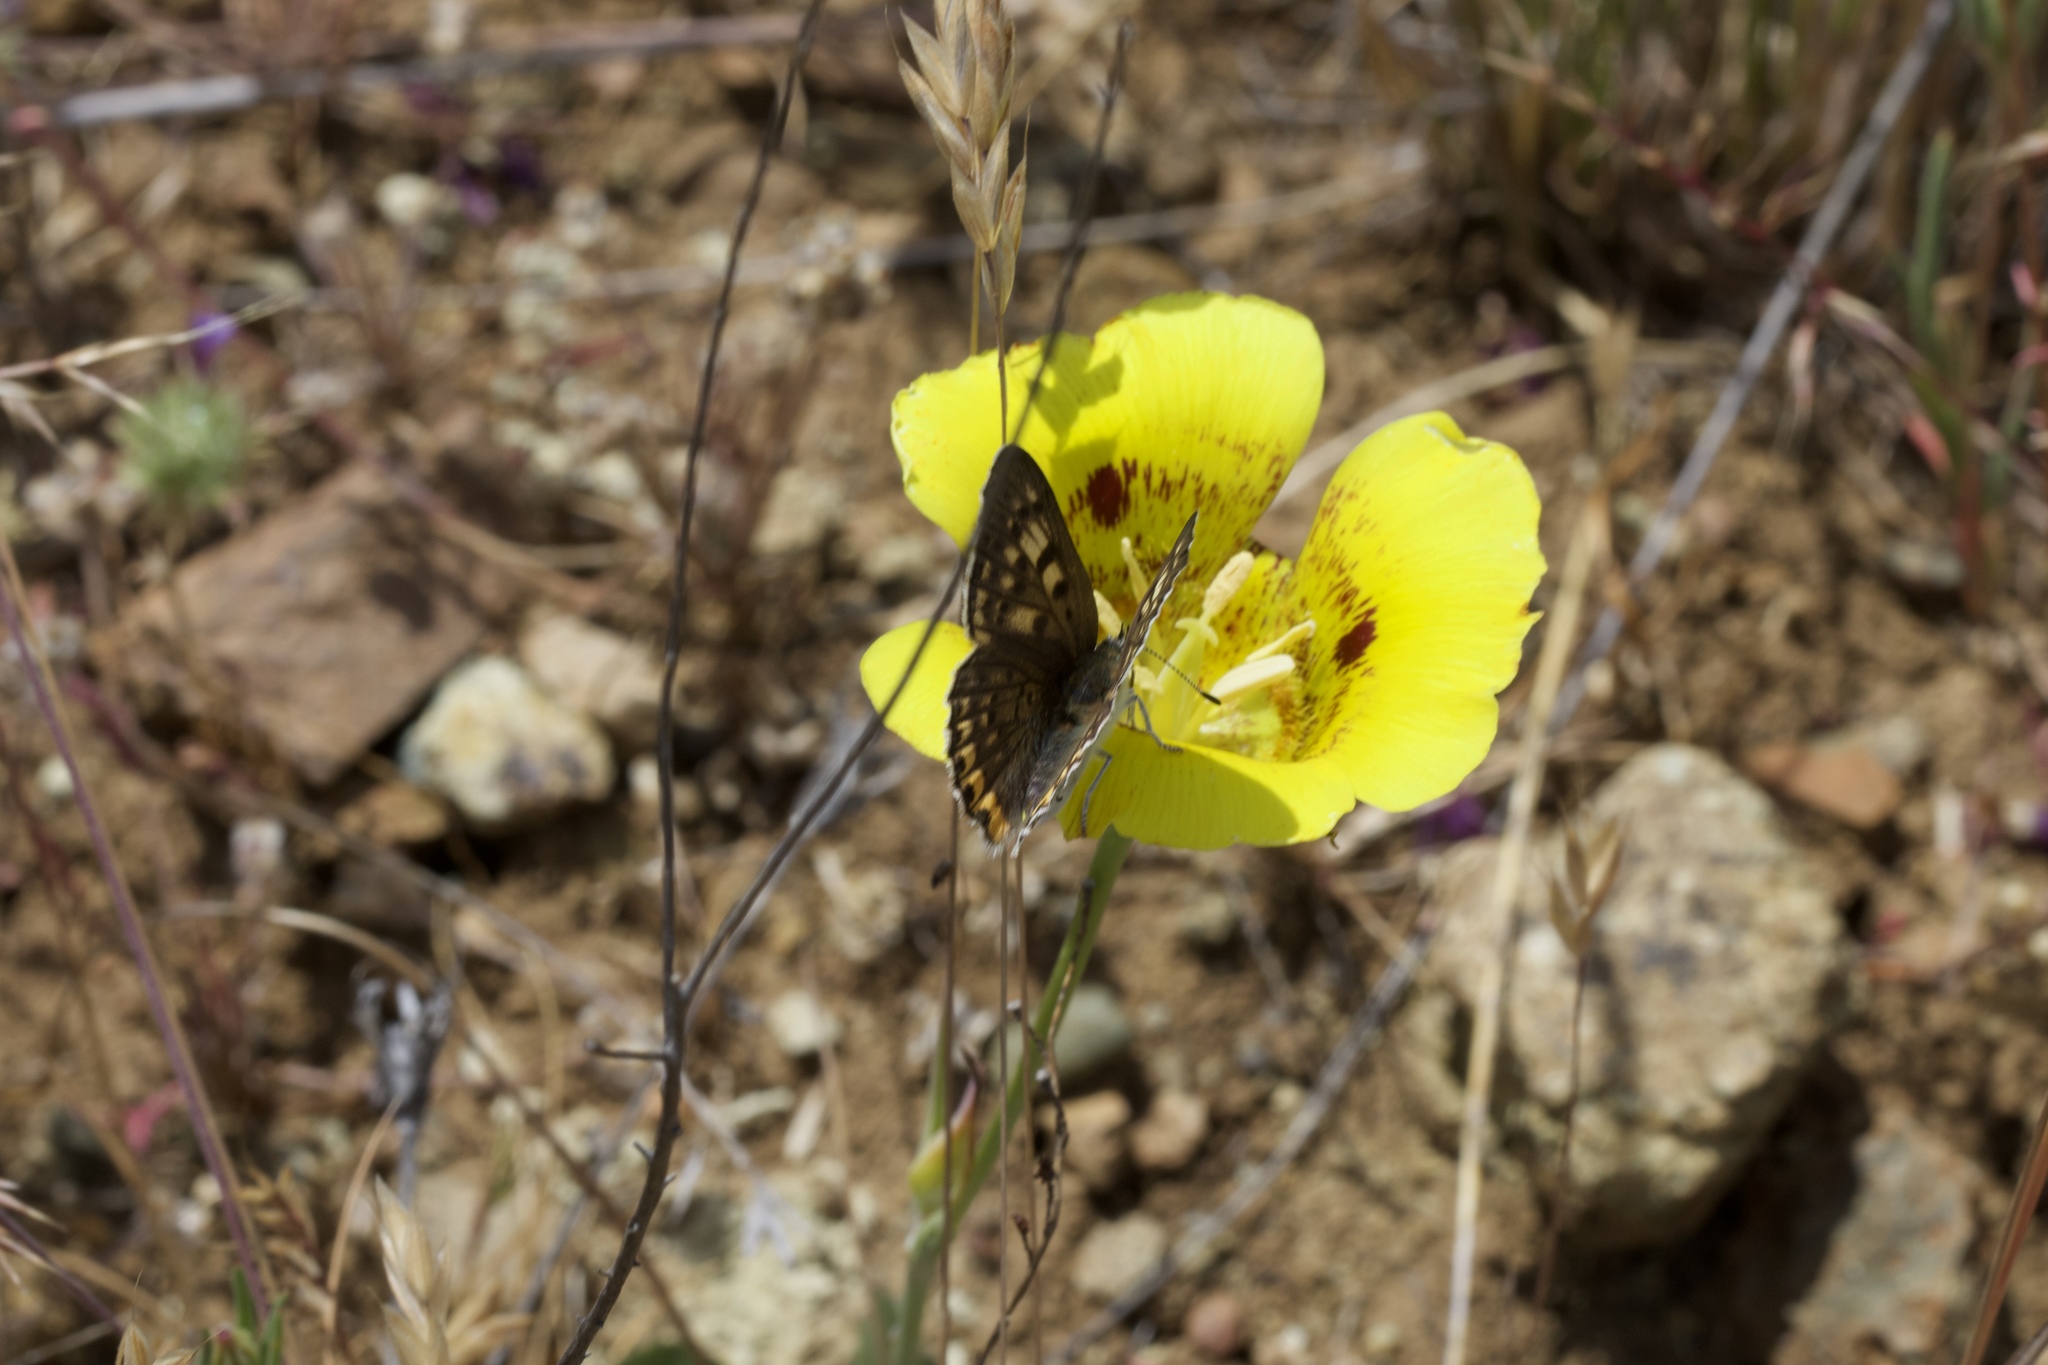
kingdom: Plantae
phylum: Tracheophyta
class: Liliopsida
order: Liliales
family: Liliaceae
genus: Calochortus
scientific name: Calochortus luteus
